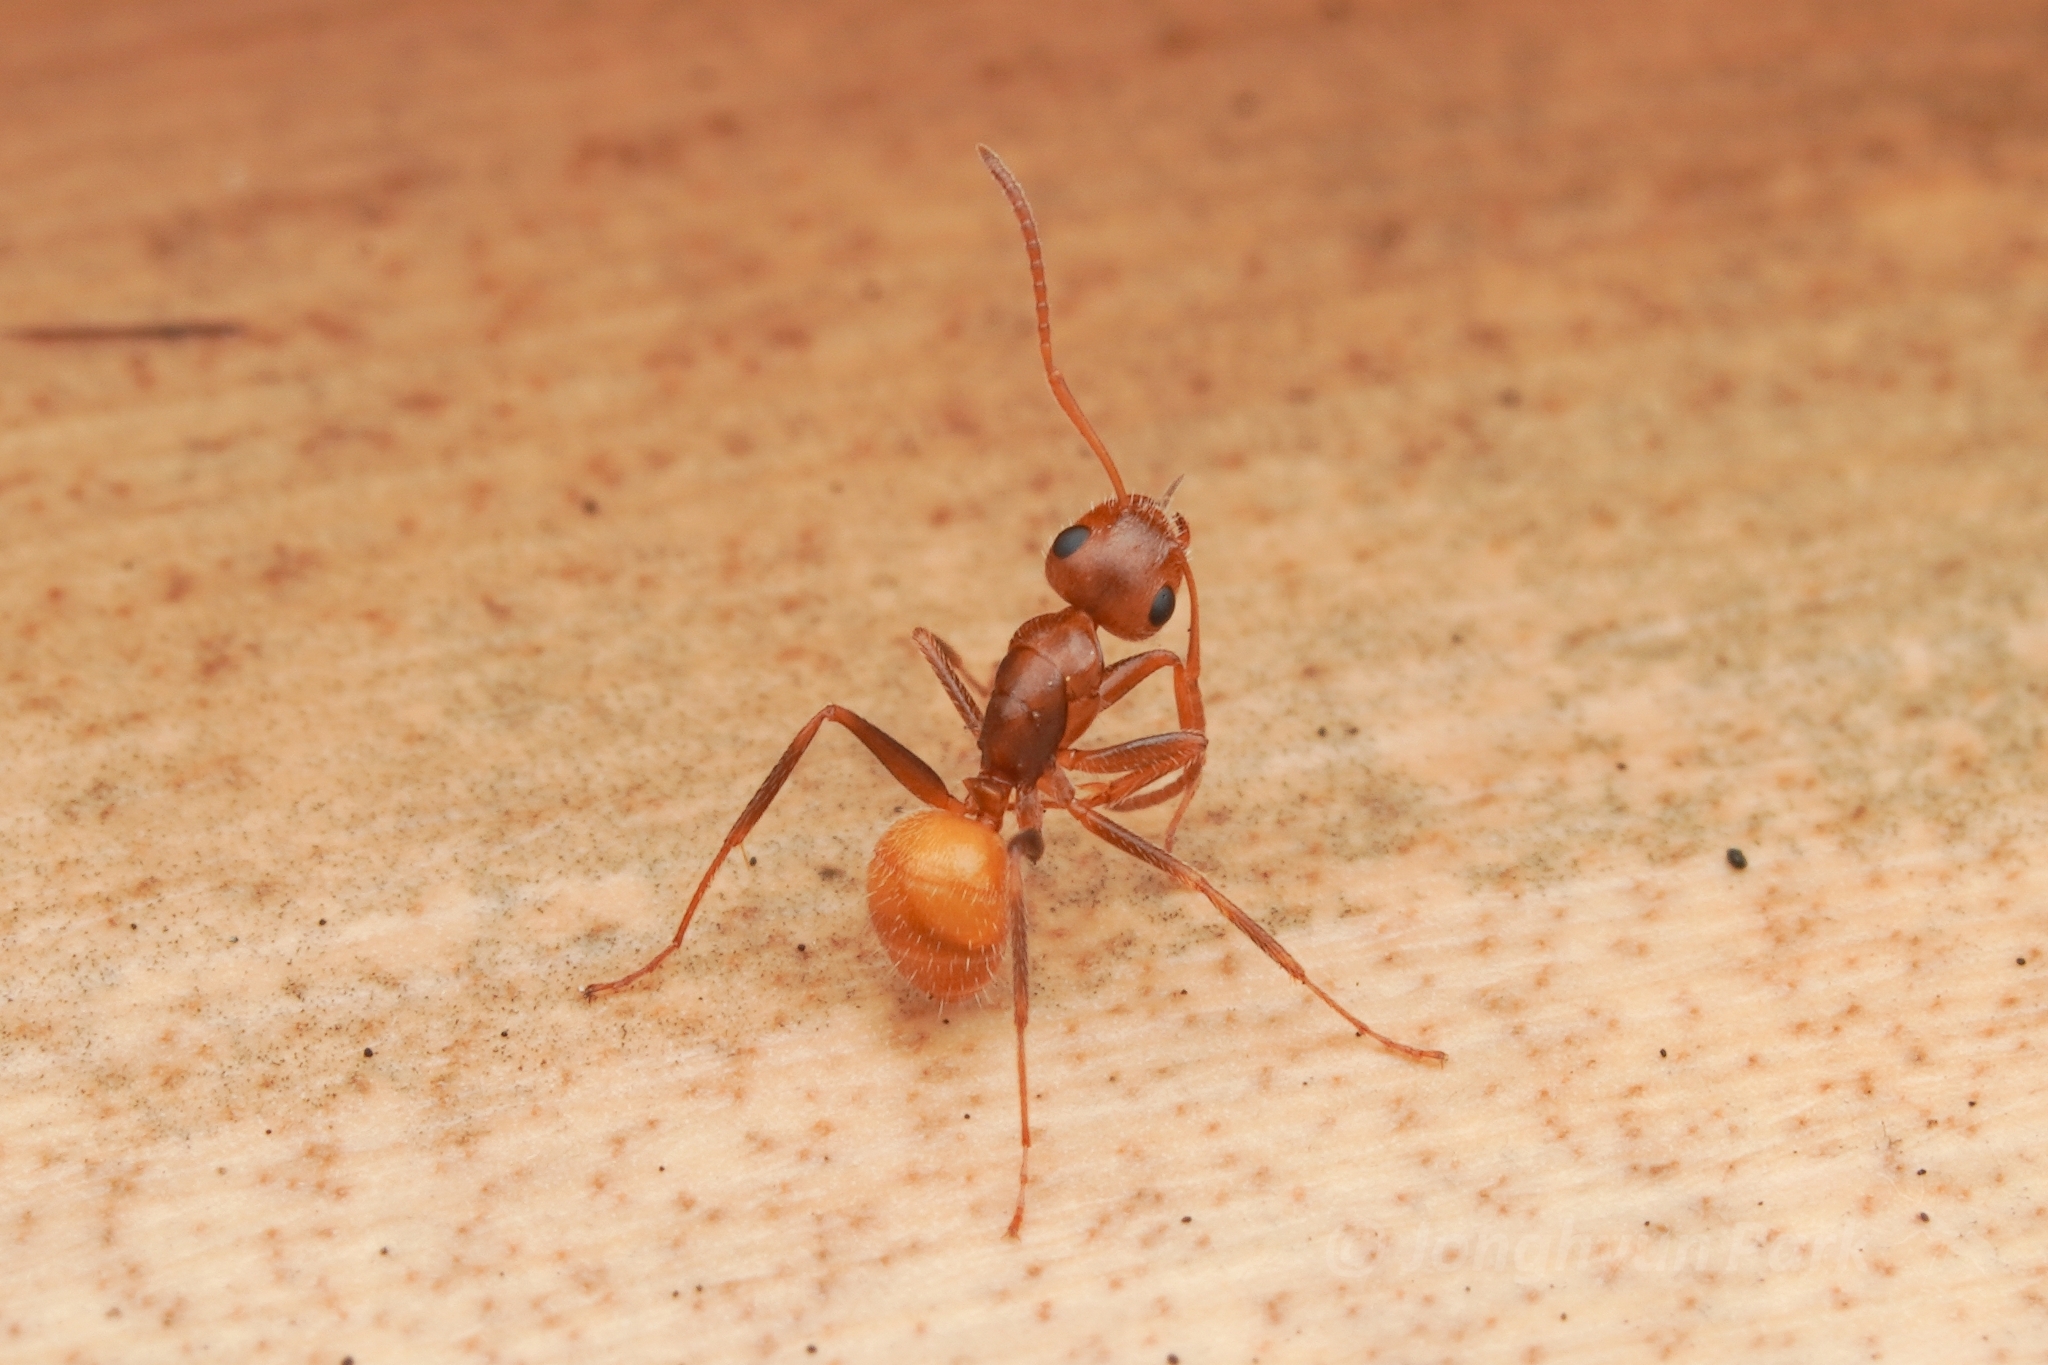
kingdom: Animalia
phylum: Arthropoda
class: Insecta
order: Hymenoptera
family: Formicidae
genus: Camponotus
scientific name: Camponotus pittieri
